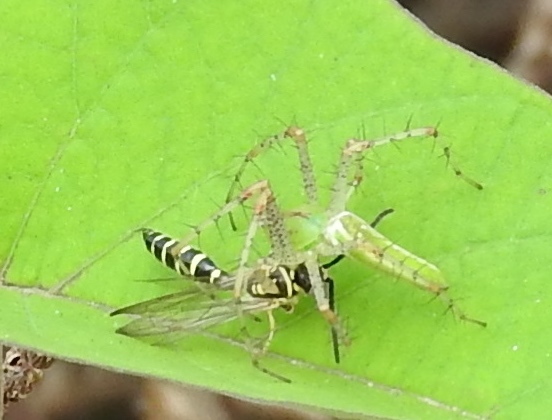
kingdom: Animalia
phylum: Arthropoda
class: Arachnida
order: Araneae
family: Oxyopidae
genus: Peucetia
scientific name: Peucetia viridans
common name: Lynx spiders
